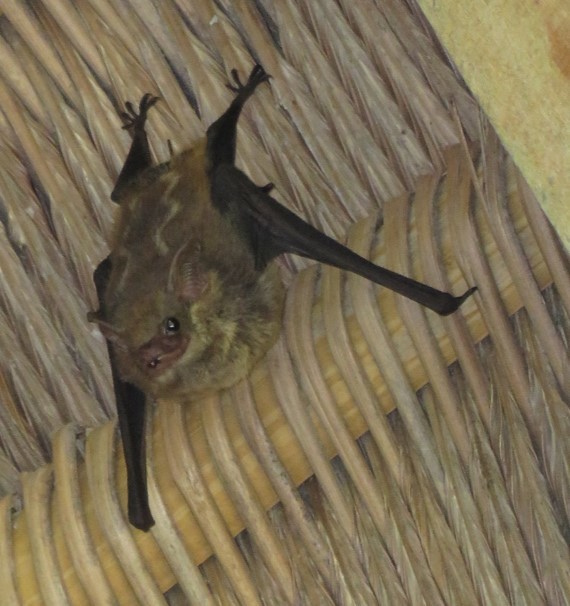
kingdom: Animalia
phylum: Chordata
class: Mammalia
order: Chiroptera
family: Emballonuridae
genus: Saccopteryx
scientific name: Saccopteryx leptura
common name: Lesser sac-winged bat
